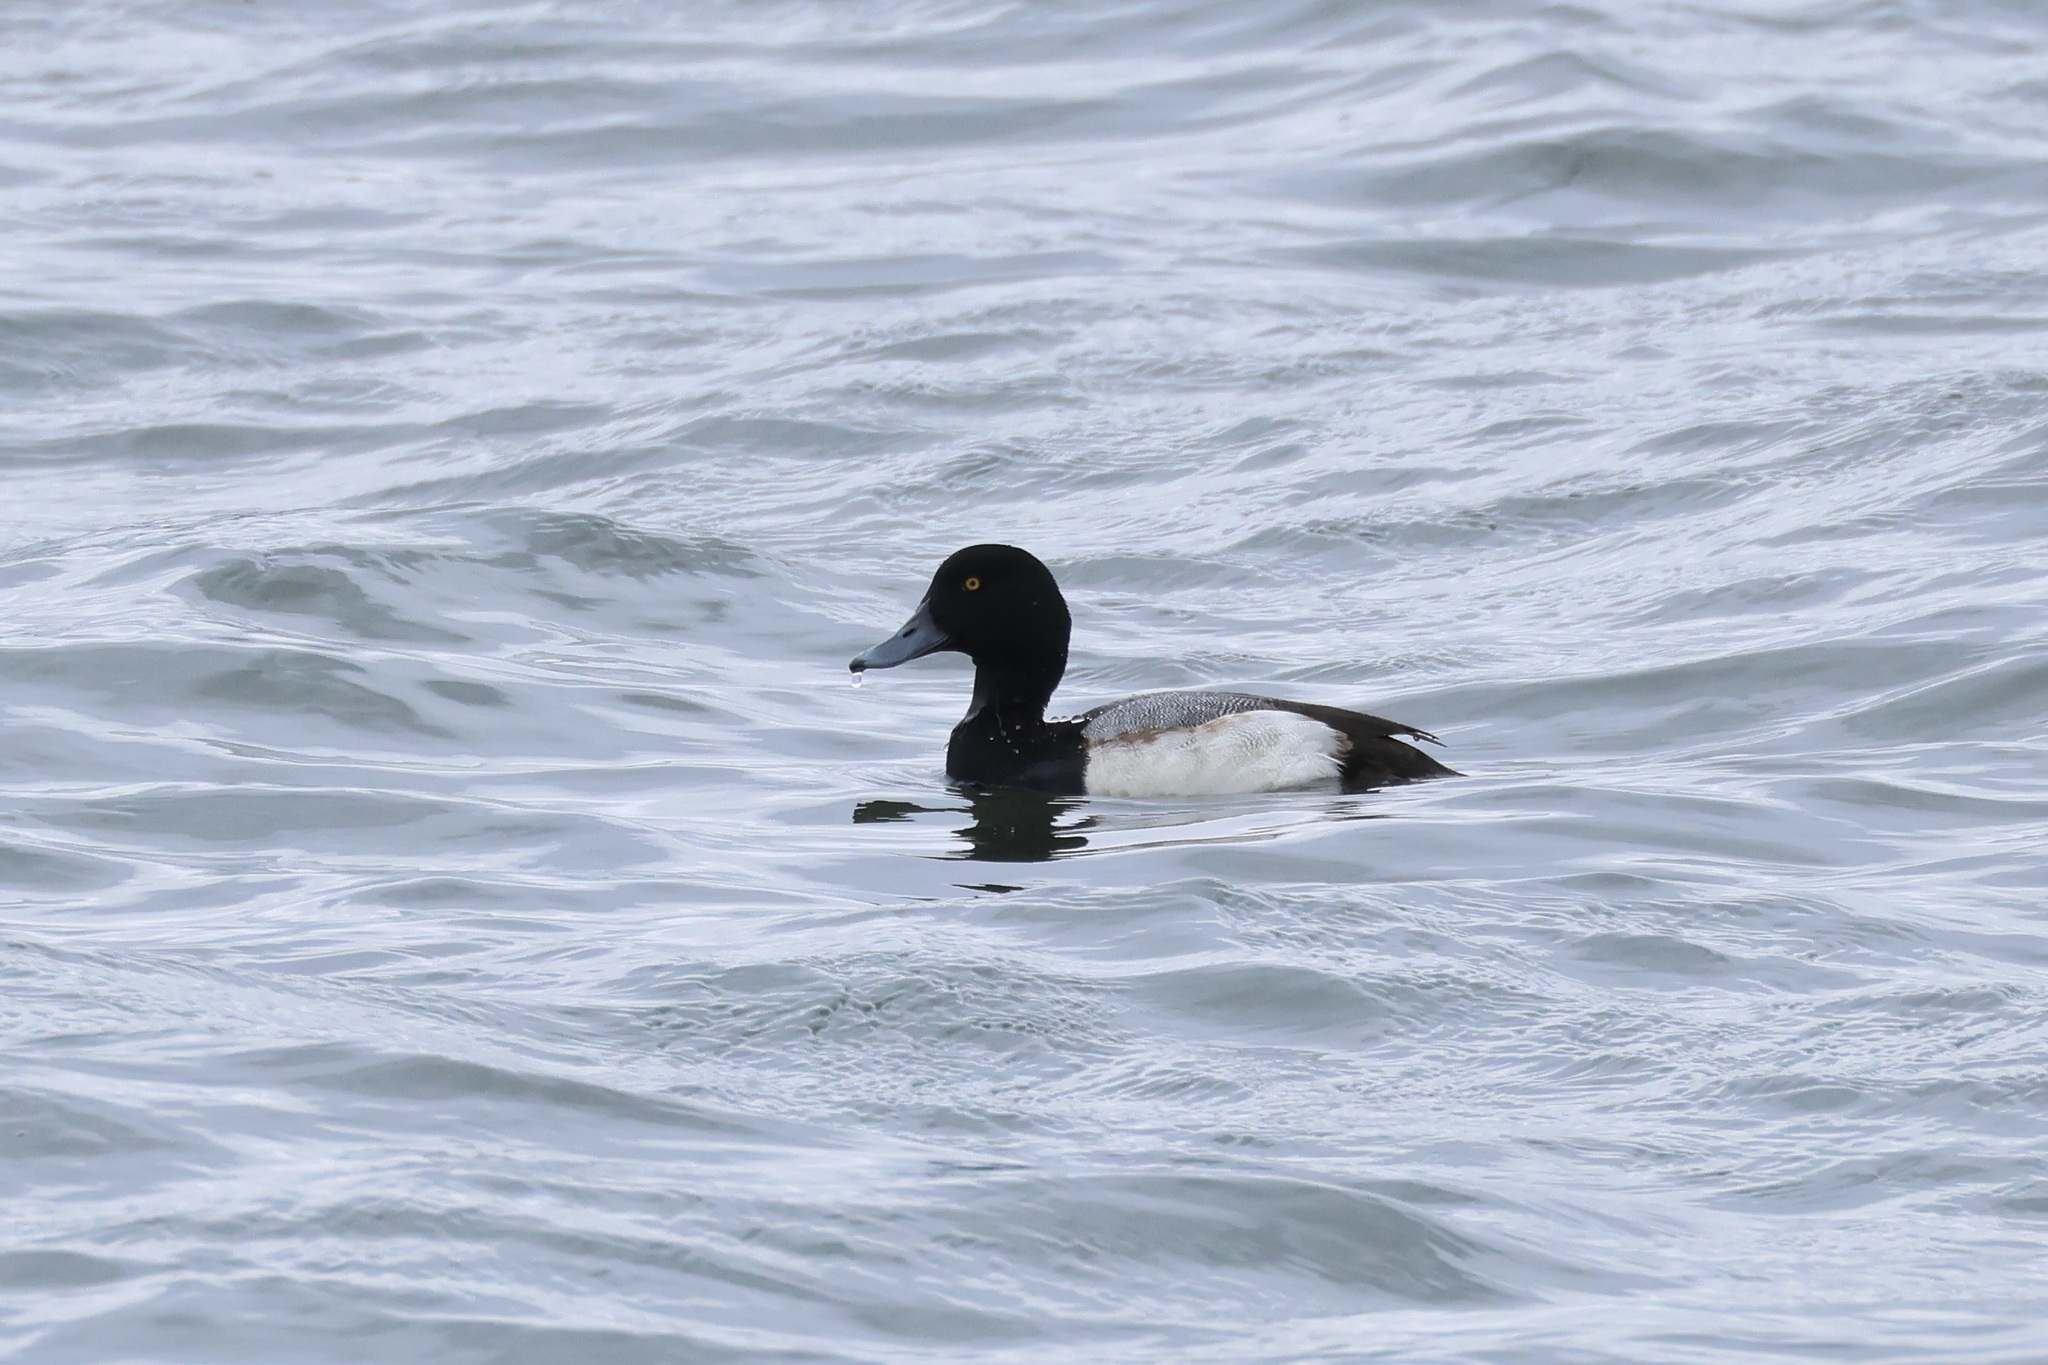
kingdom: Animalia
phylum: Chordata
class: Aves
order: Anseriformes
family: Anatidae
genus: Aythya
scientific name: Aythya marila
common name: Greater scaup
